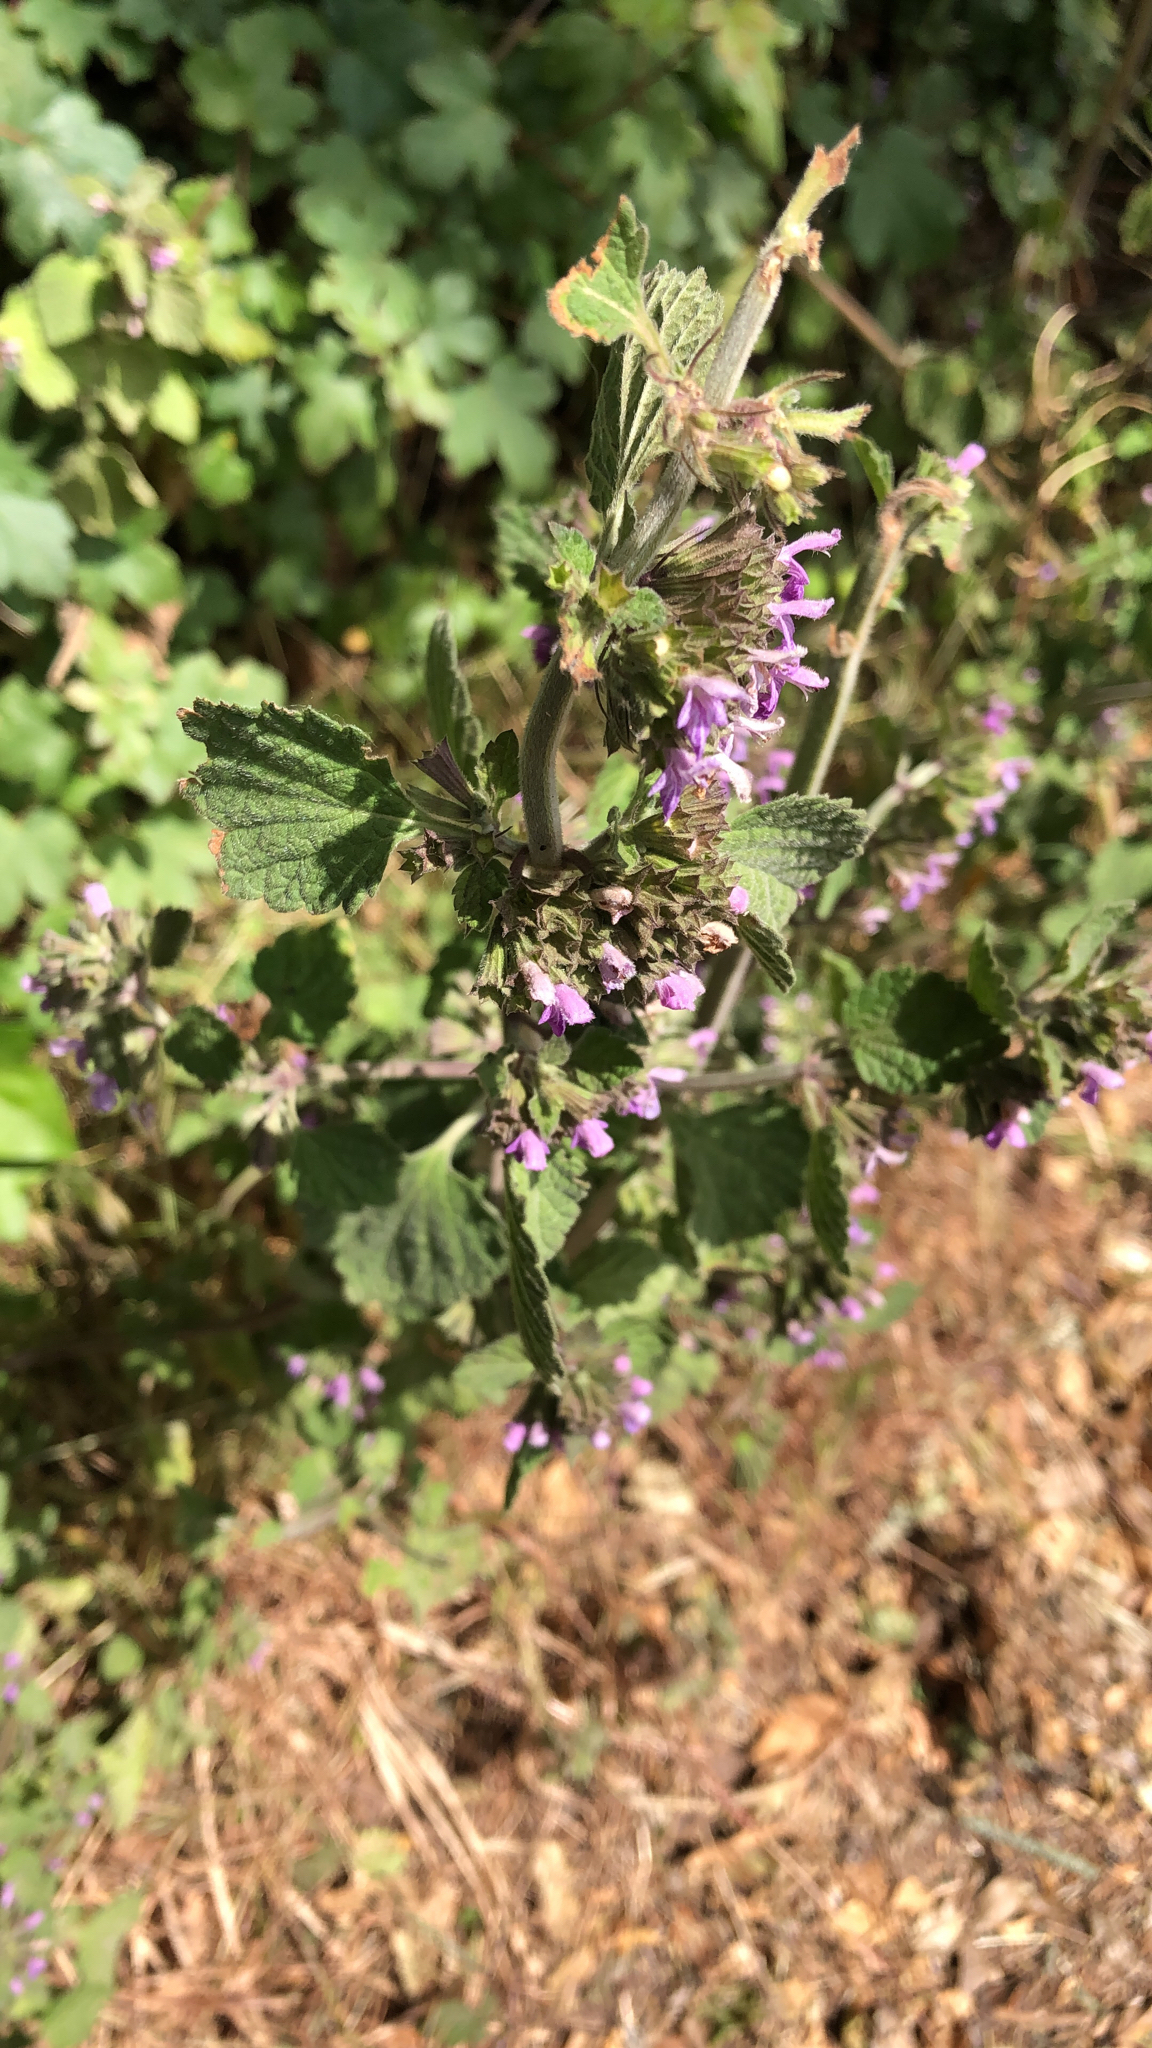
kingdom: Plantae
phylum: Tracheophyta
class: Magnoliopsida
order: Lamiales
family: Lamiaceae
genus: Ballota
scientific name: Ballota nigra
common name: Black horehound
